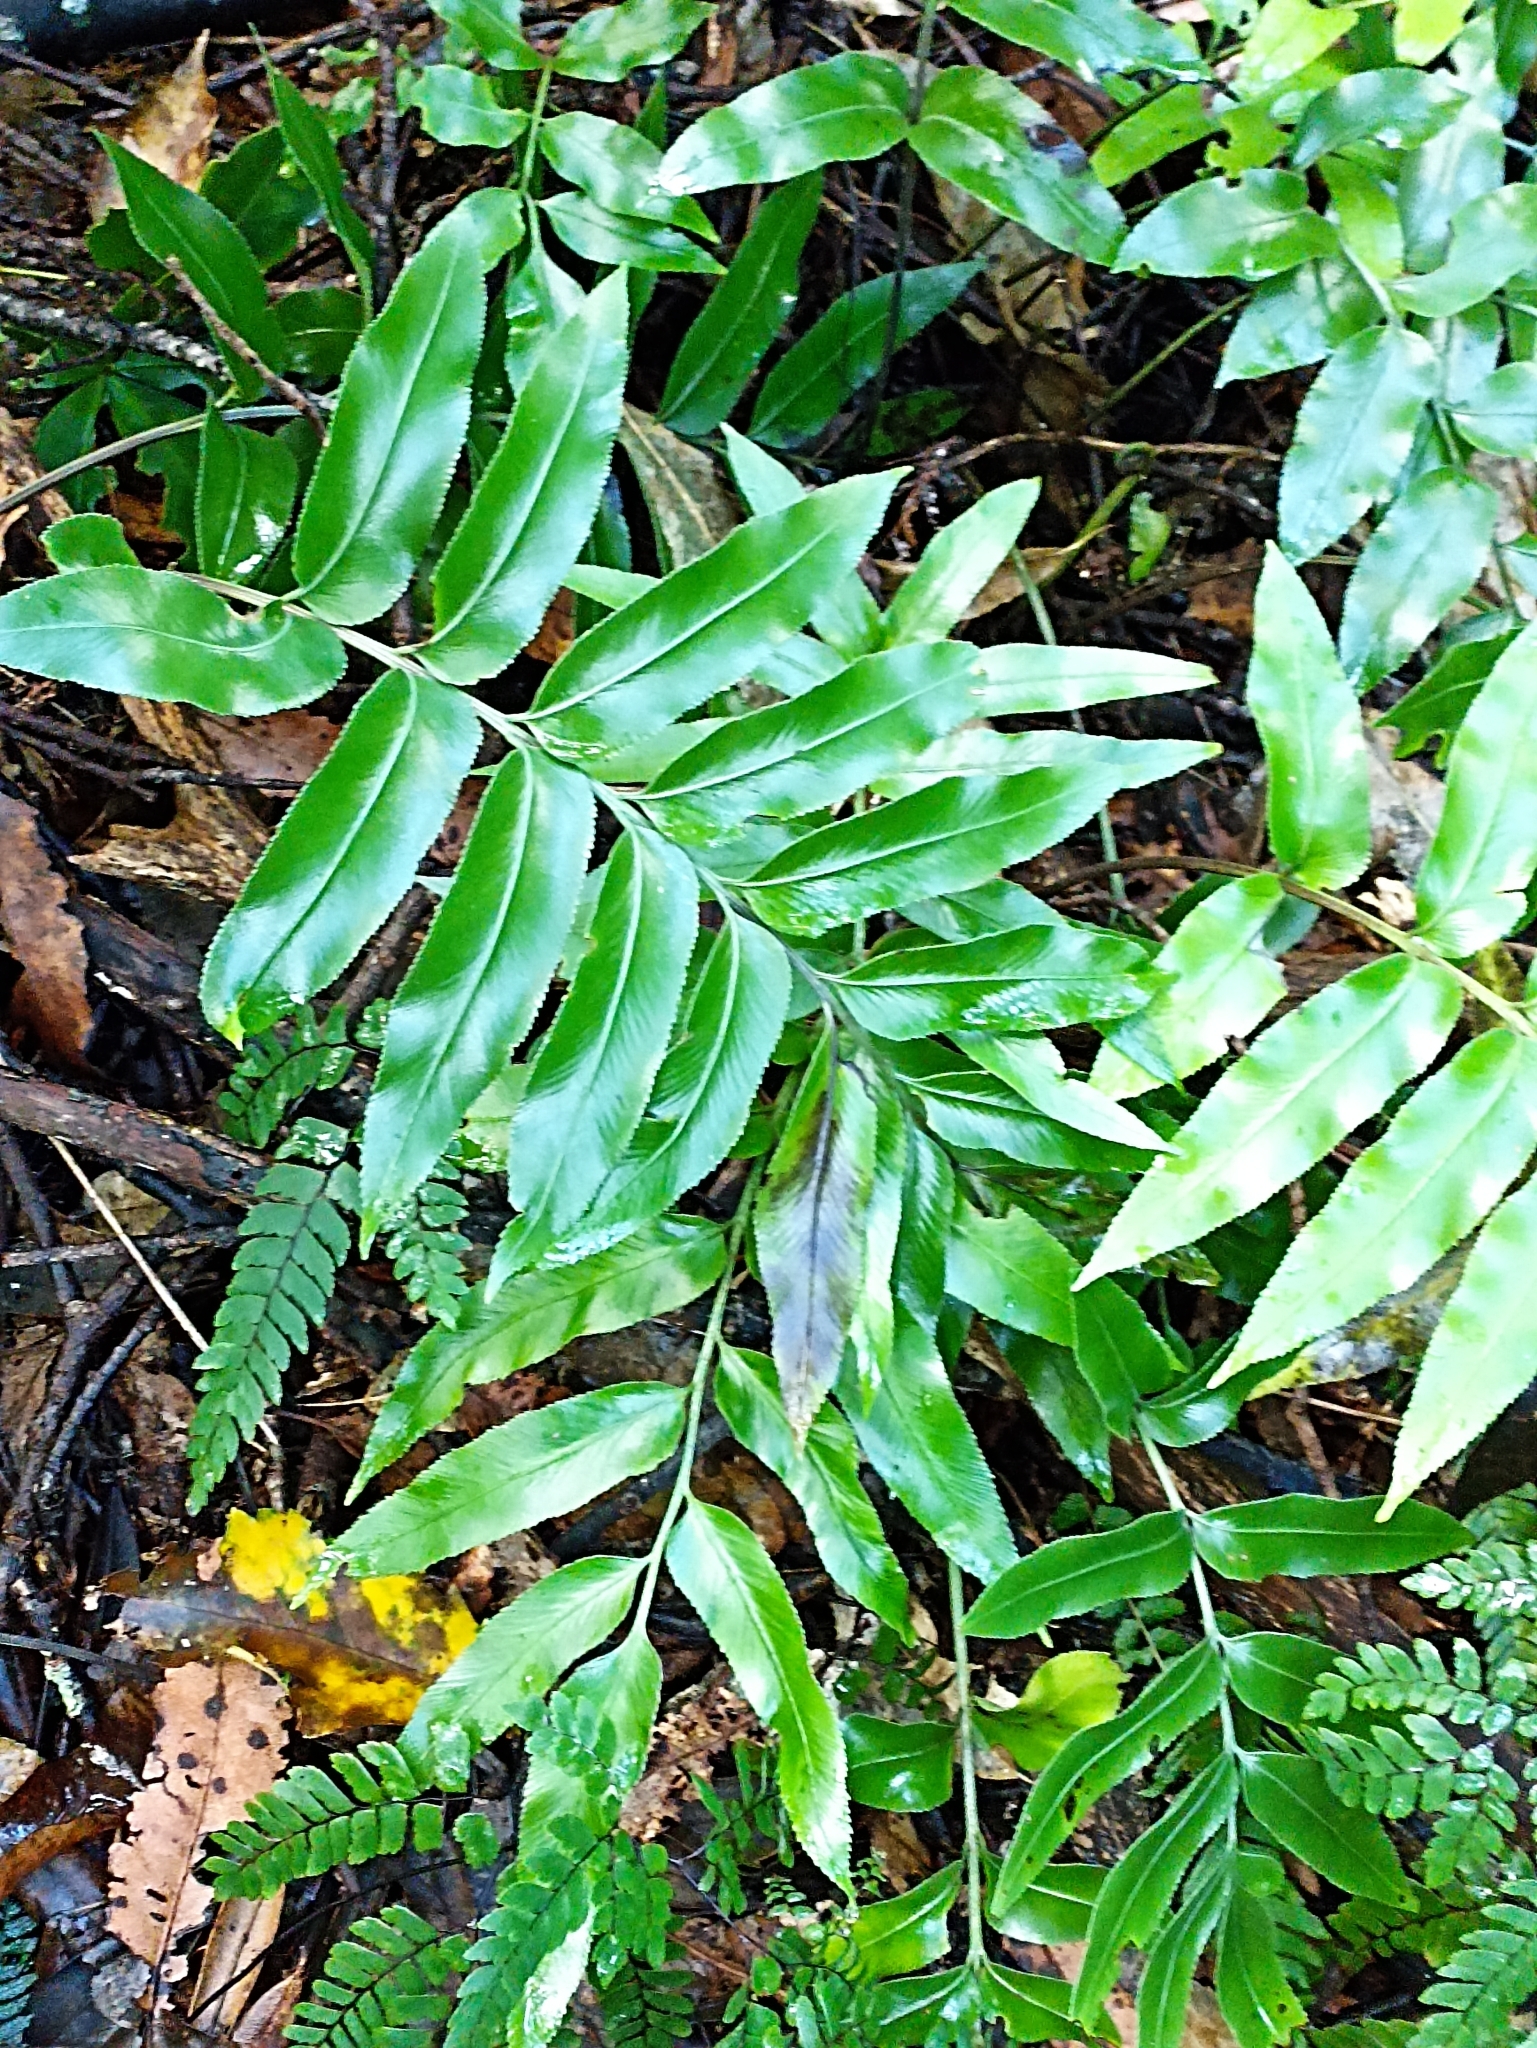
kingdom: Plantae
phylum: Tracheophyta
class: Polypodiopsida
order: Polypodiales
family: Aspleniaceae
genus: Asplenium
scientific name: Asplenium oblongifolium
